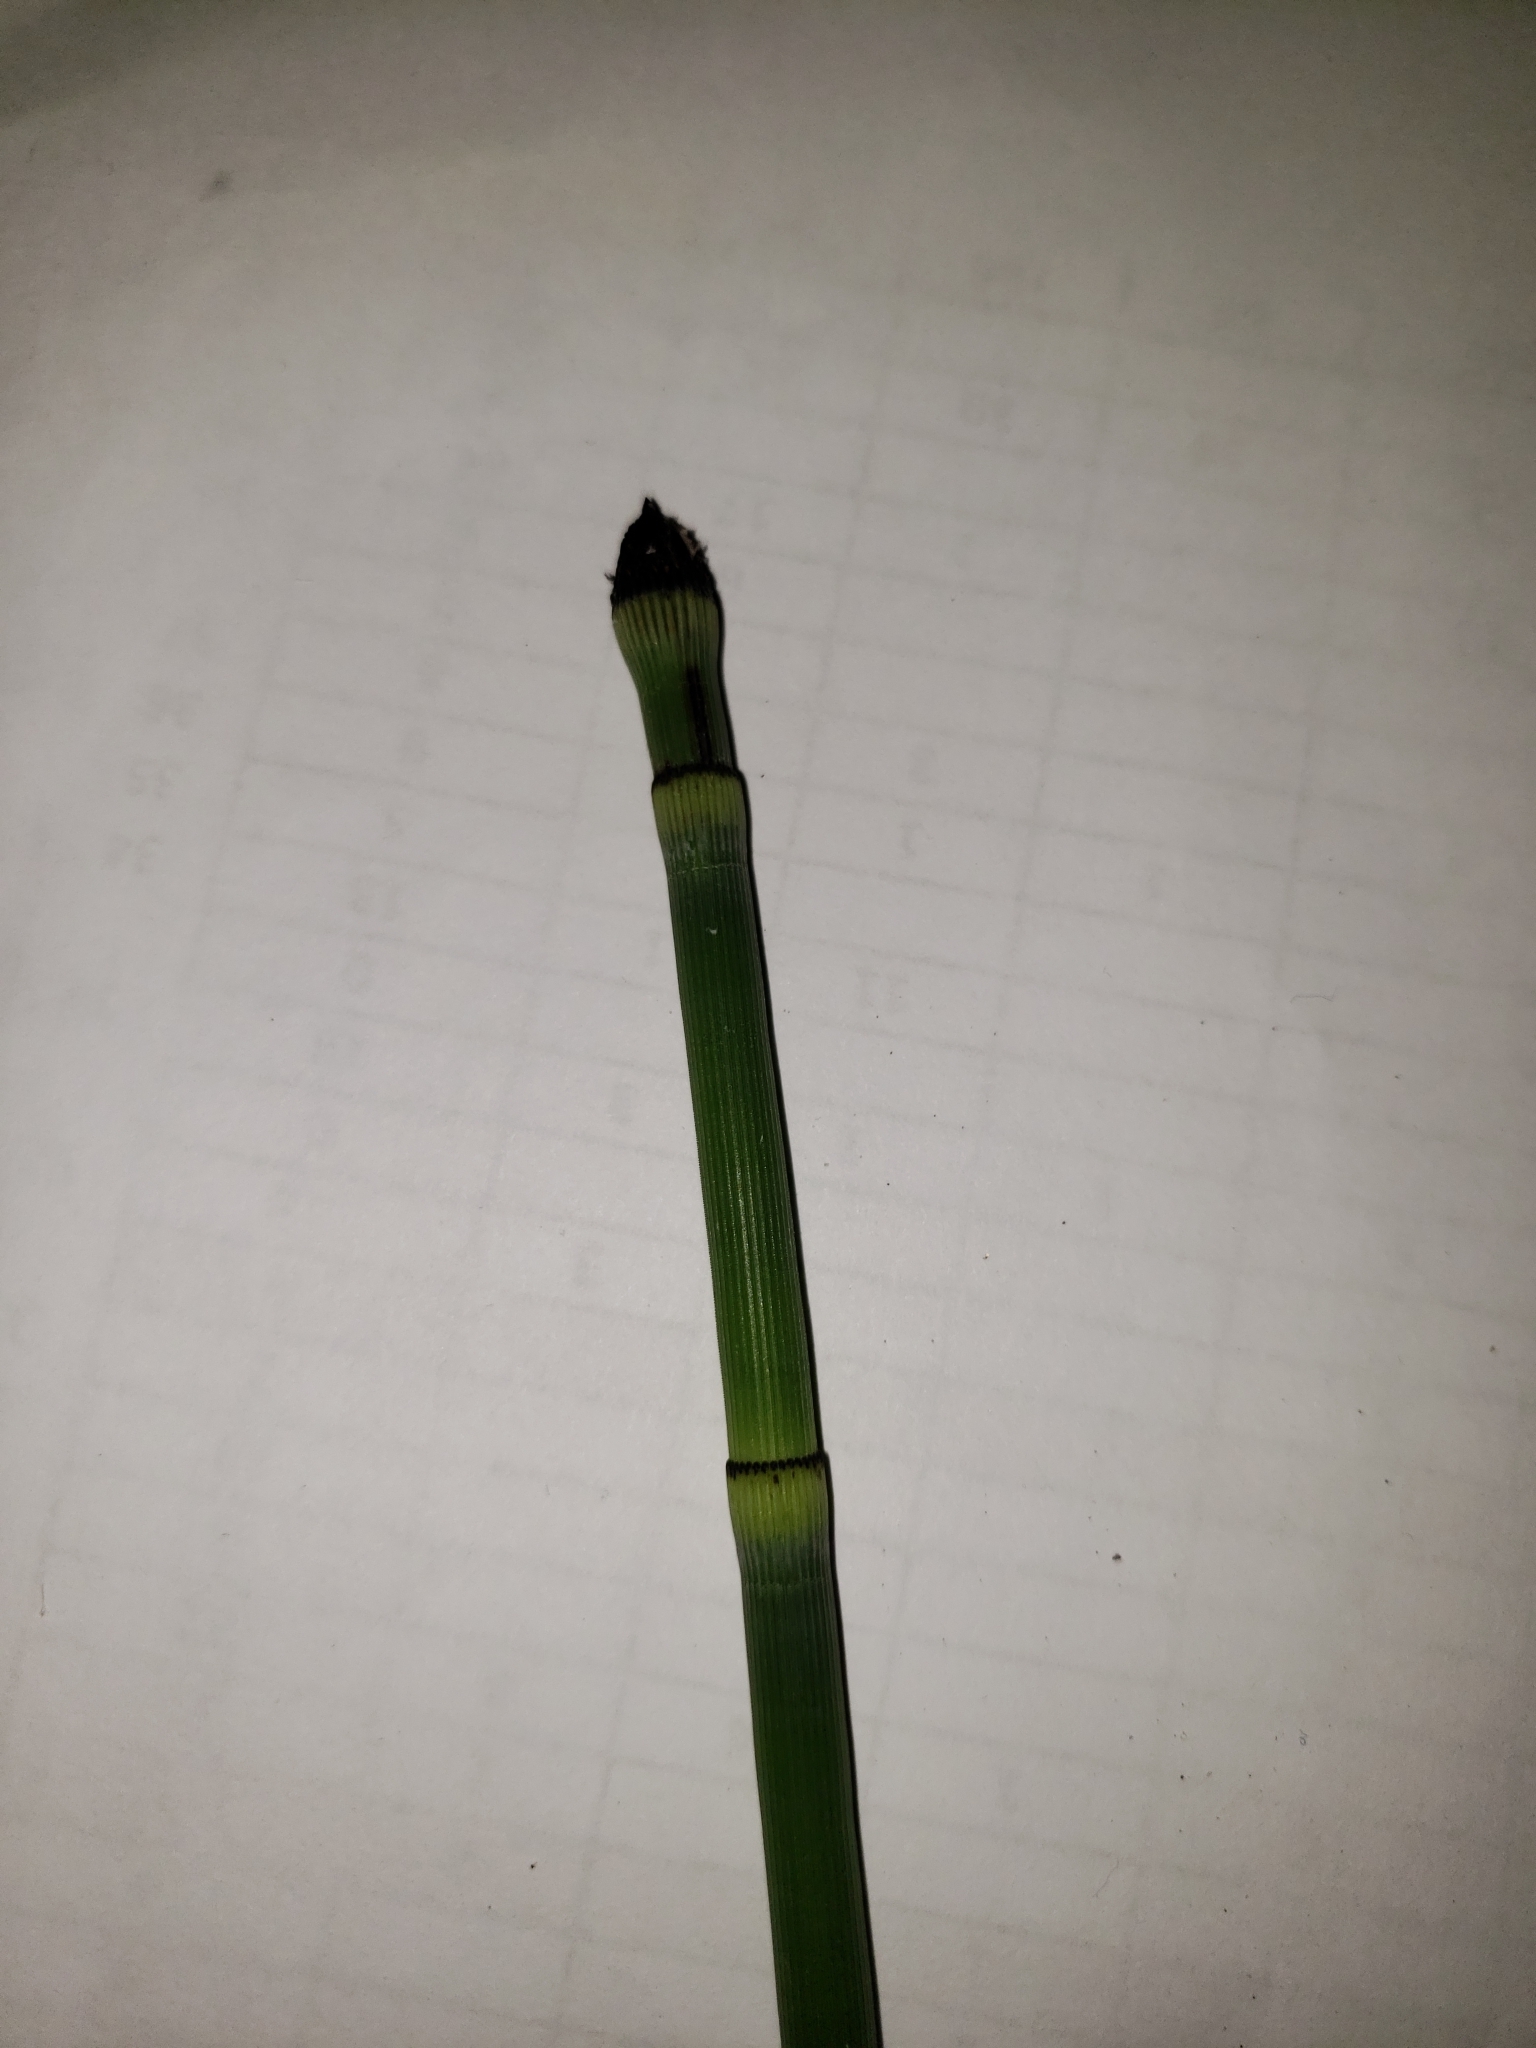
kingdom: Plantae
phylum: Tracheophyta
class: Polypodiopsida
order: Equisetales
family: Equisetaceae
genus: Equisetum
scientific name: Equisetum hyemale
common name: Rough horsetail
